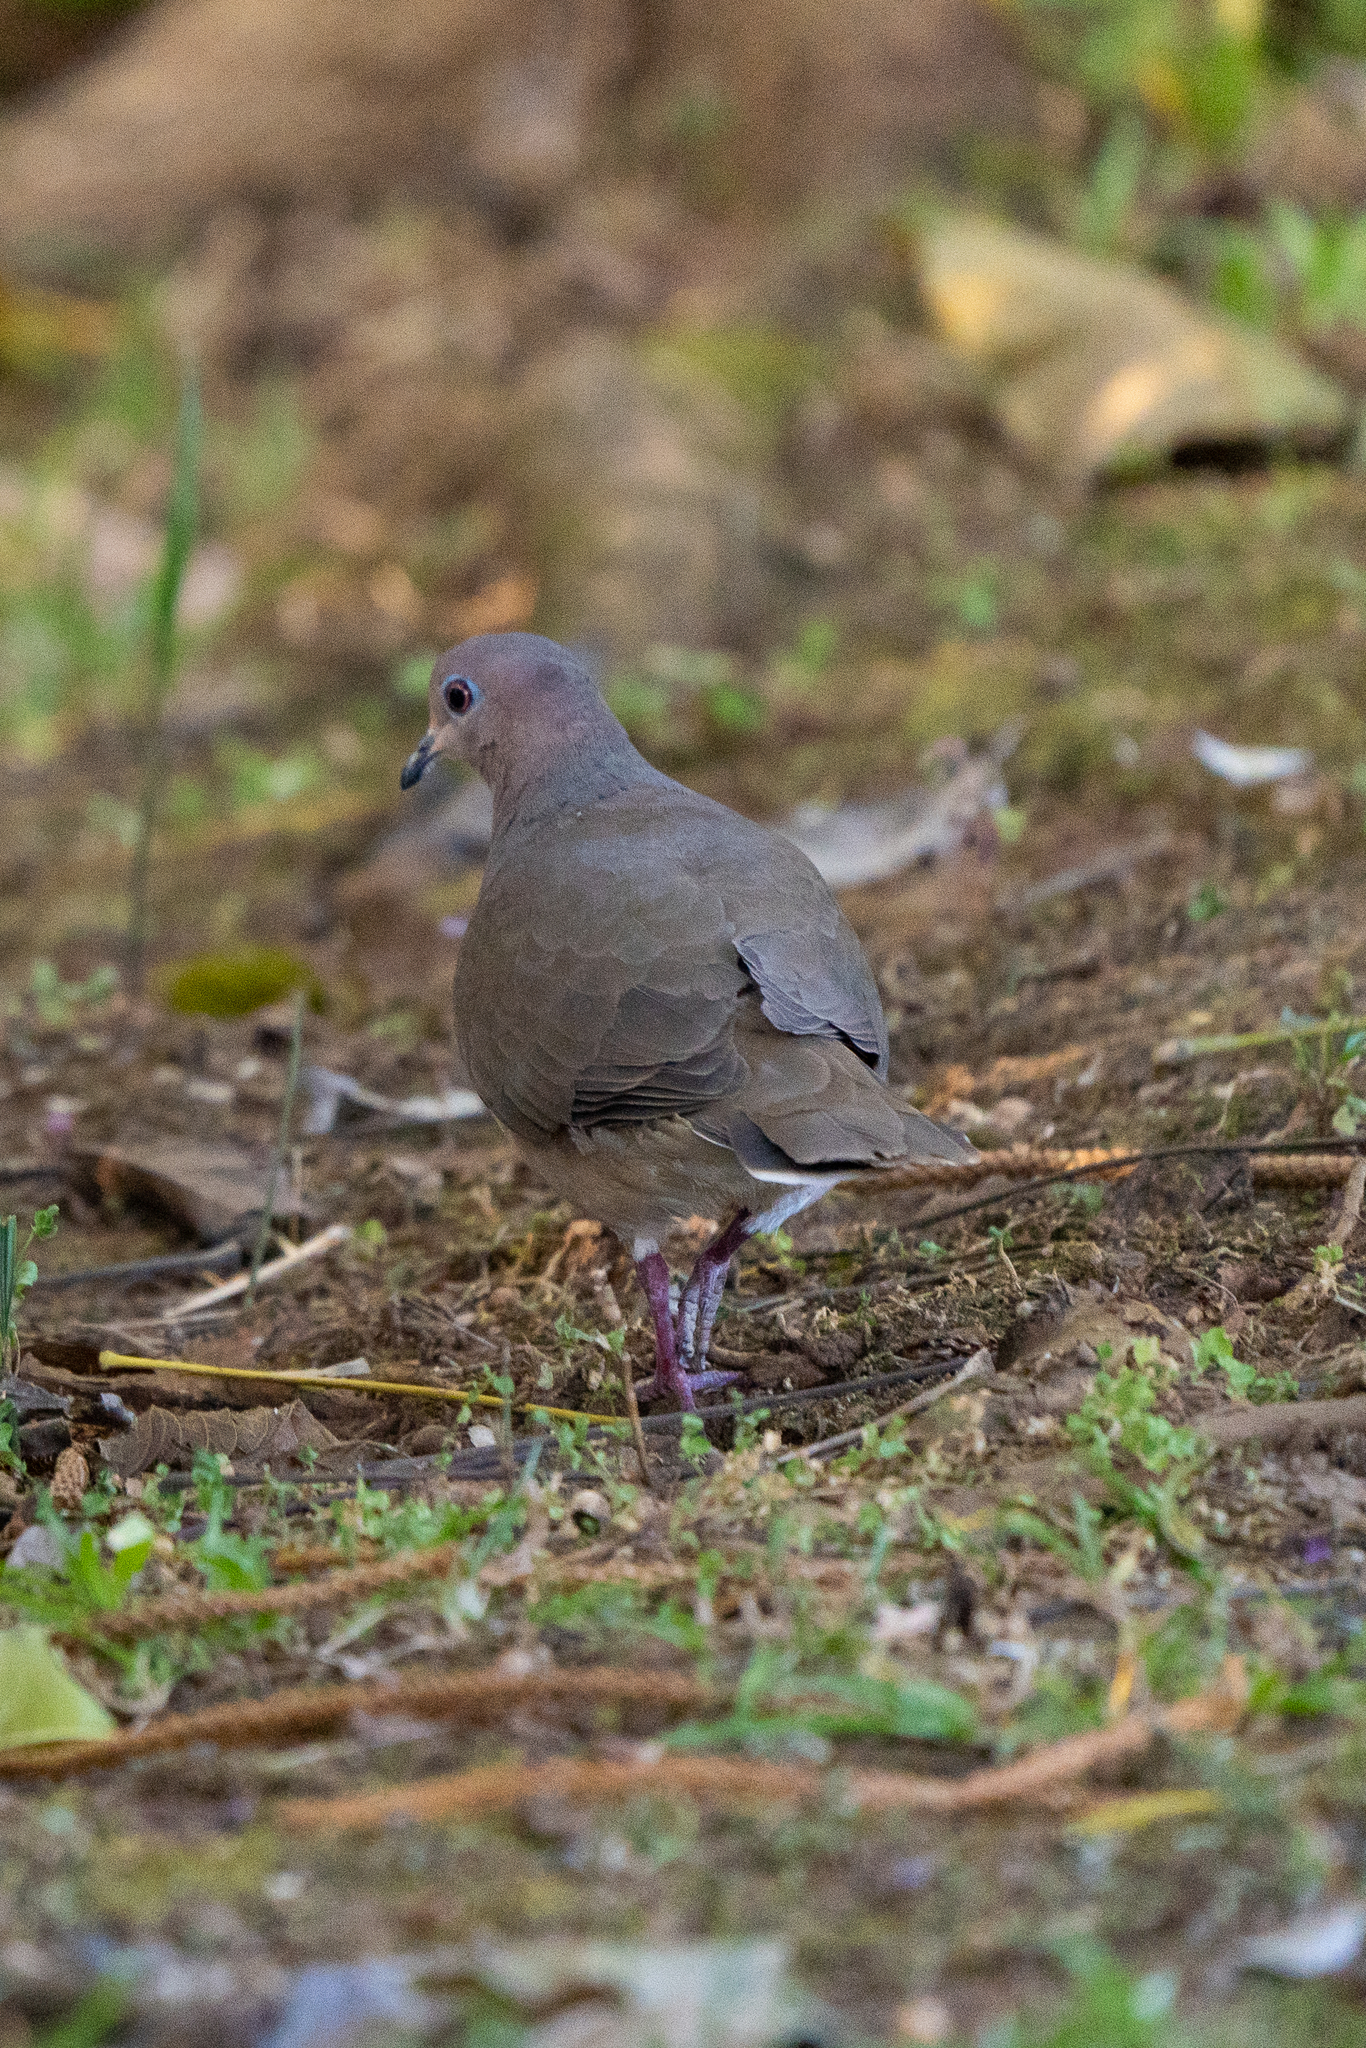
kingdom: Animalia
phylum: Chordata
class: Aves
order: Columbiformes
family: Columbidae
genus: Leptotila
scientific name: Leptotila verreauxi
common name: White-tipped dove
